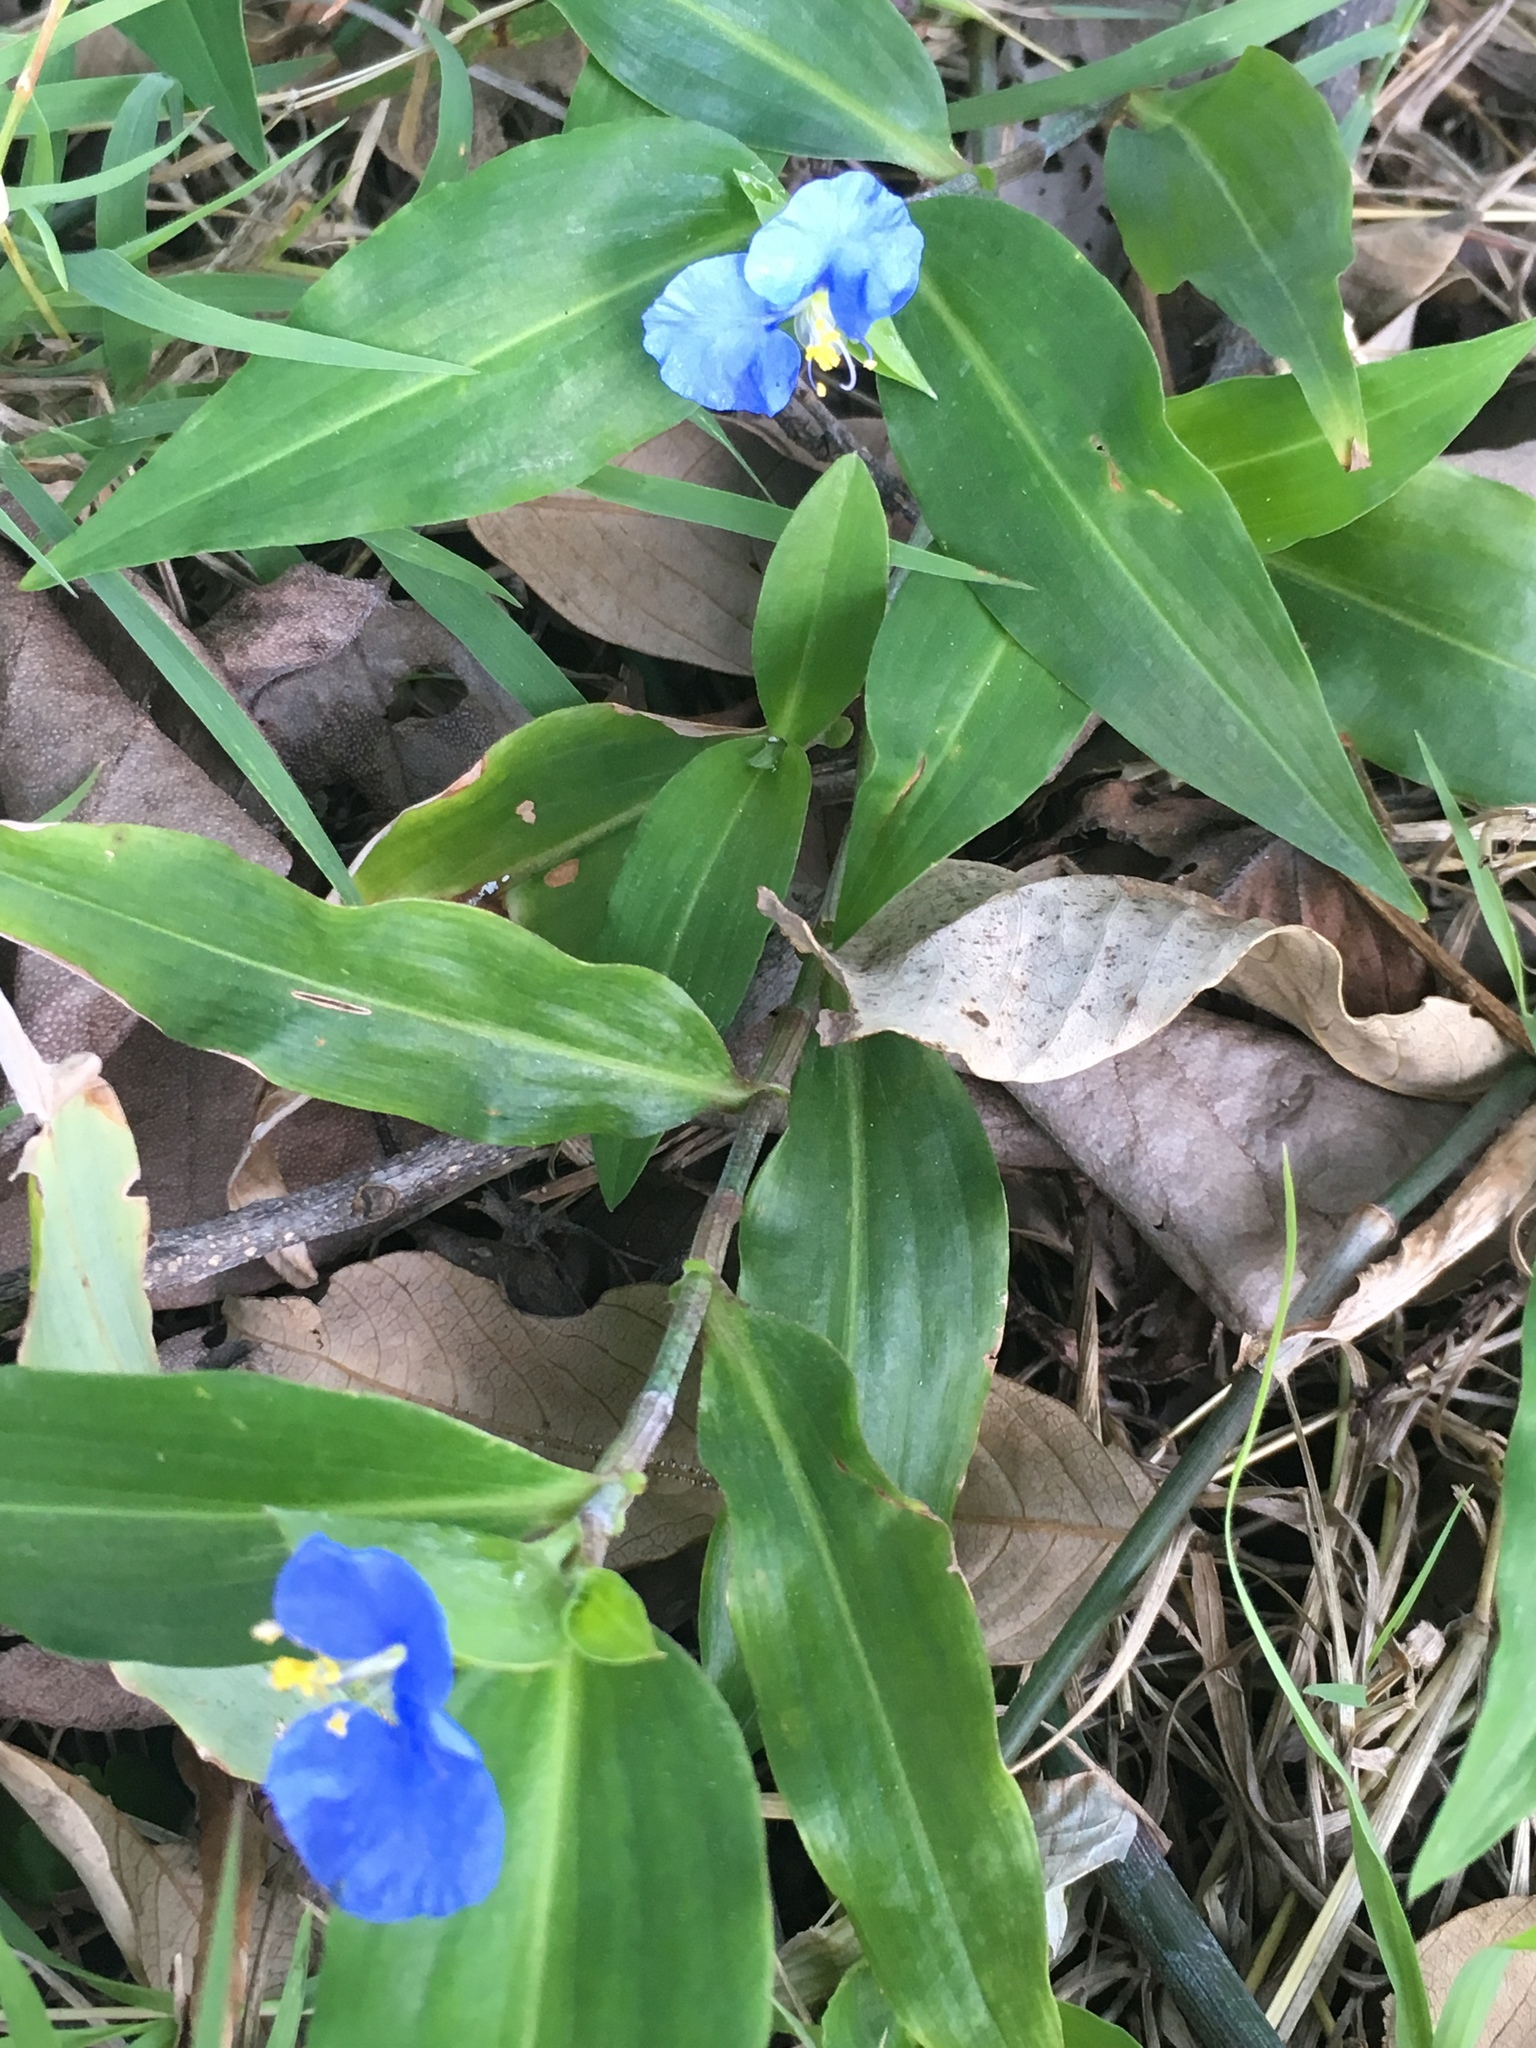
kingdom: Plantae
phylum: Tracheophyta
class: Liliopsida
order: Commelinales
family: Commelinaceae
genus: Commelina
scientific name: Commelina erecta
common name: Blousel blommetjie
